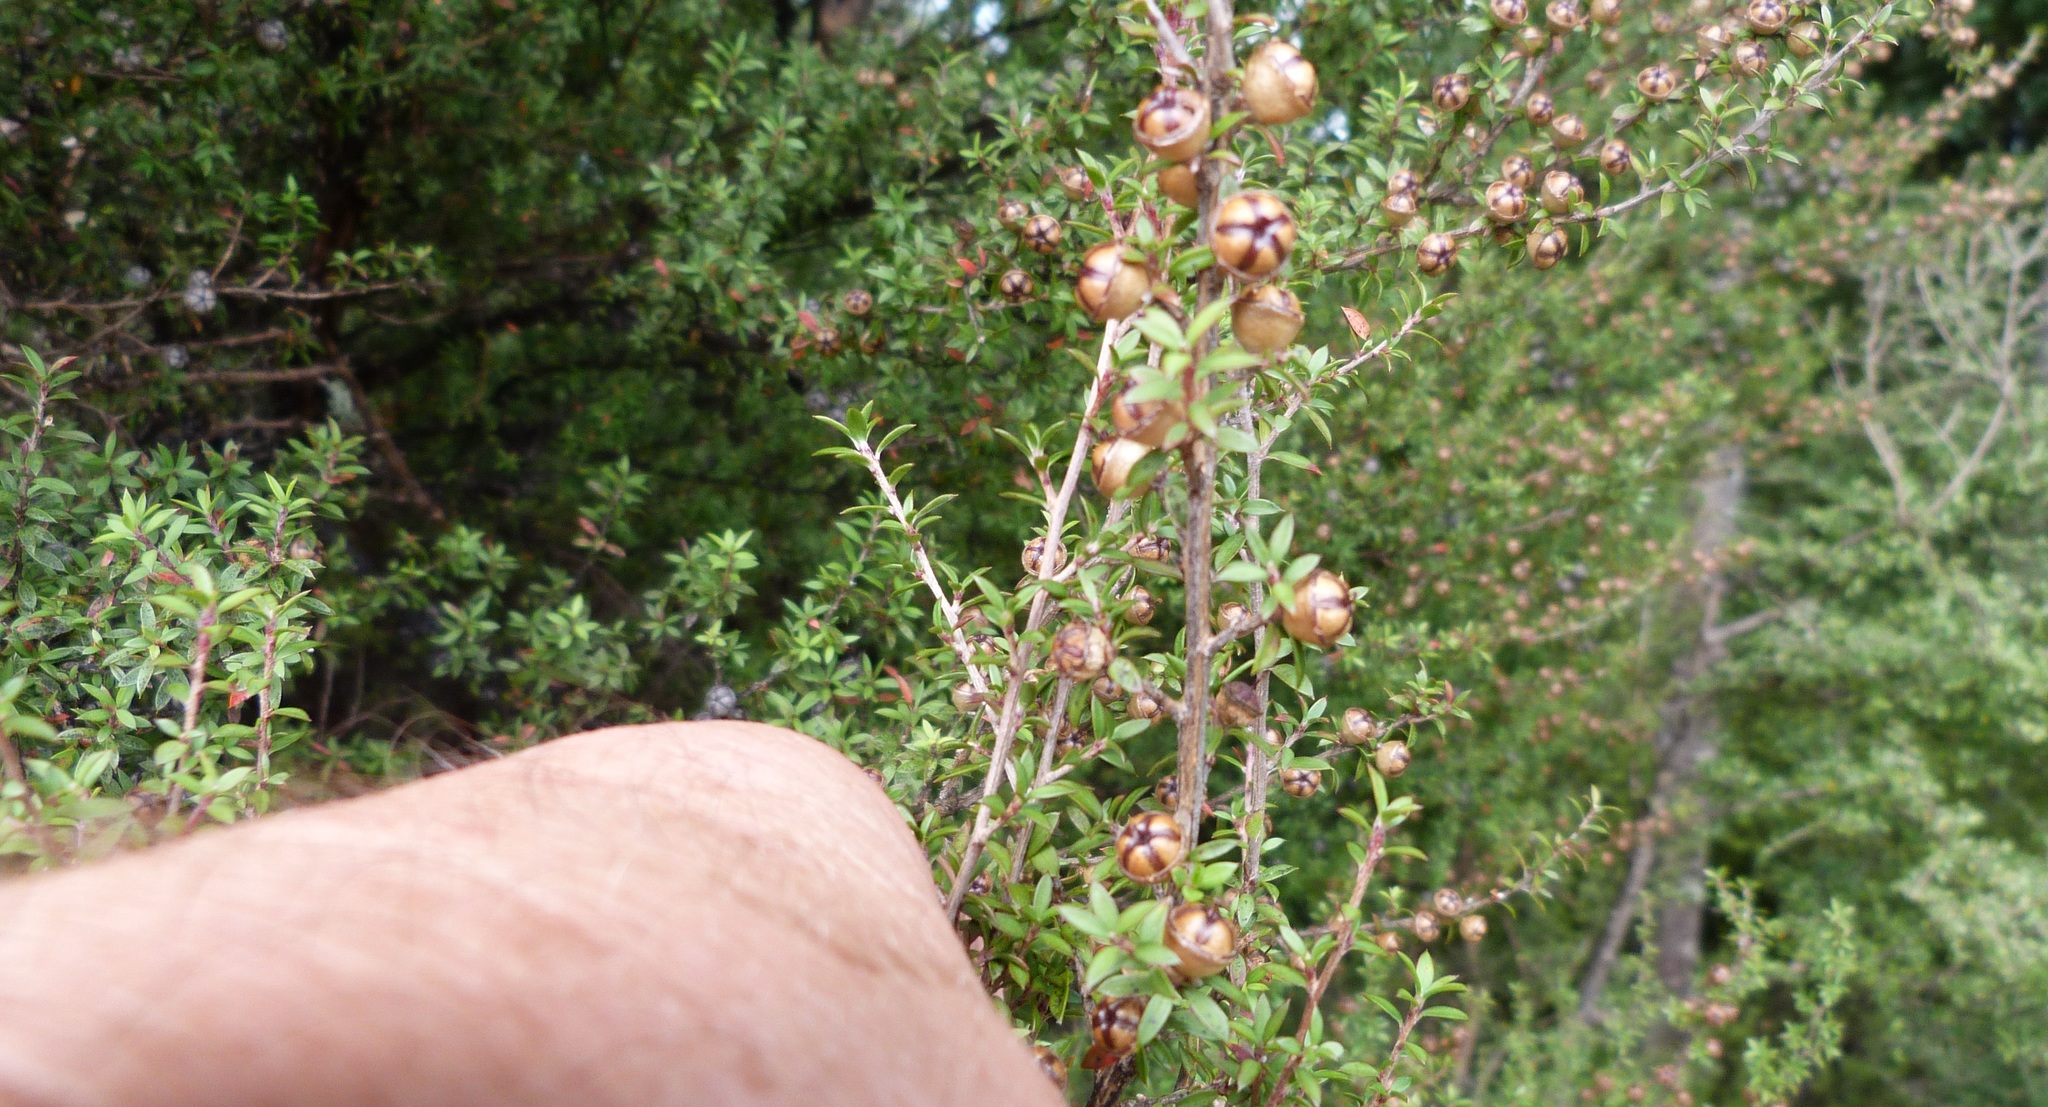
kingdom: Plantae
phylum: Tracheophyta
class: Magnoliopsida
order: Myrtales
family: Myrtaceae
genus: Leptospermum
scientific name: Leptospermum scoparium
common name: Broom tea-tree
